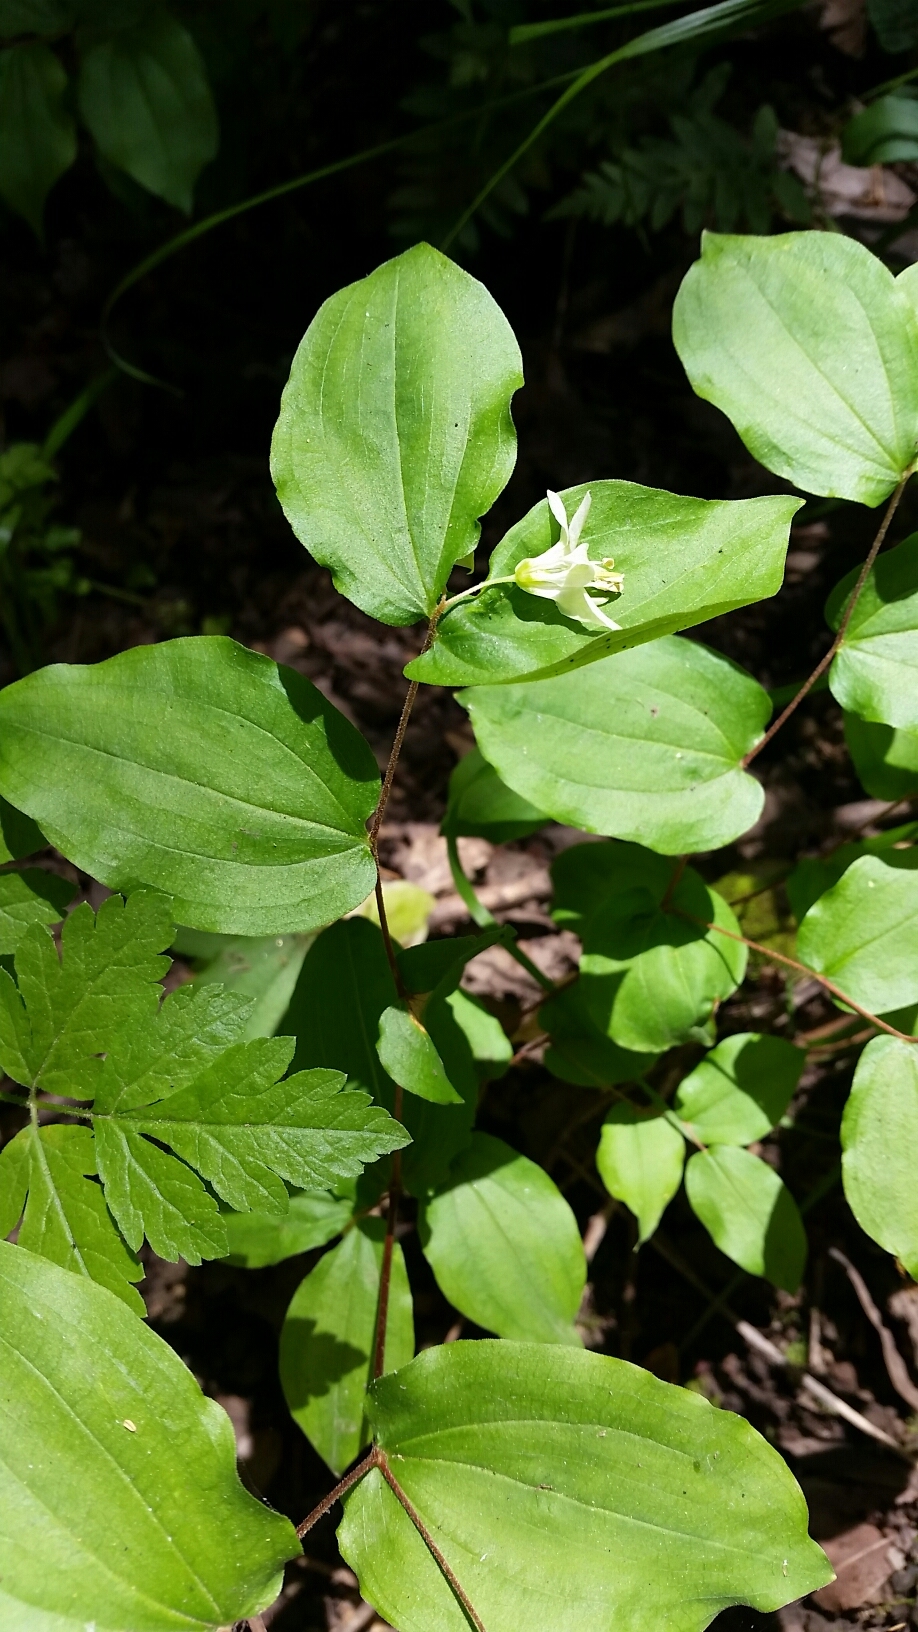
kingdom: Plantae
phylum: Tracheophyta
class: Liliopsida
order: Liliales
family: Liliaceae
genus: Prosartes
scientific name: Prosartes hookeri
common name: Fairy-bells
